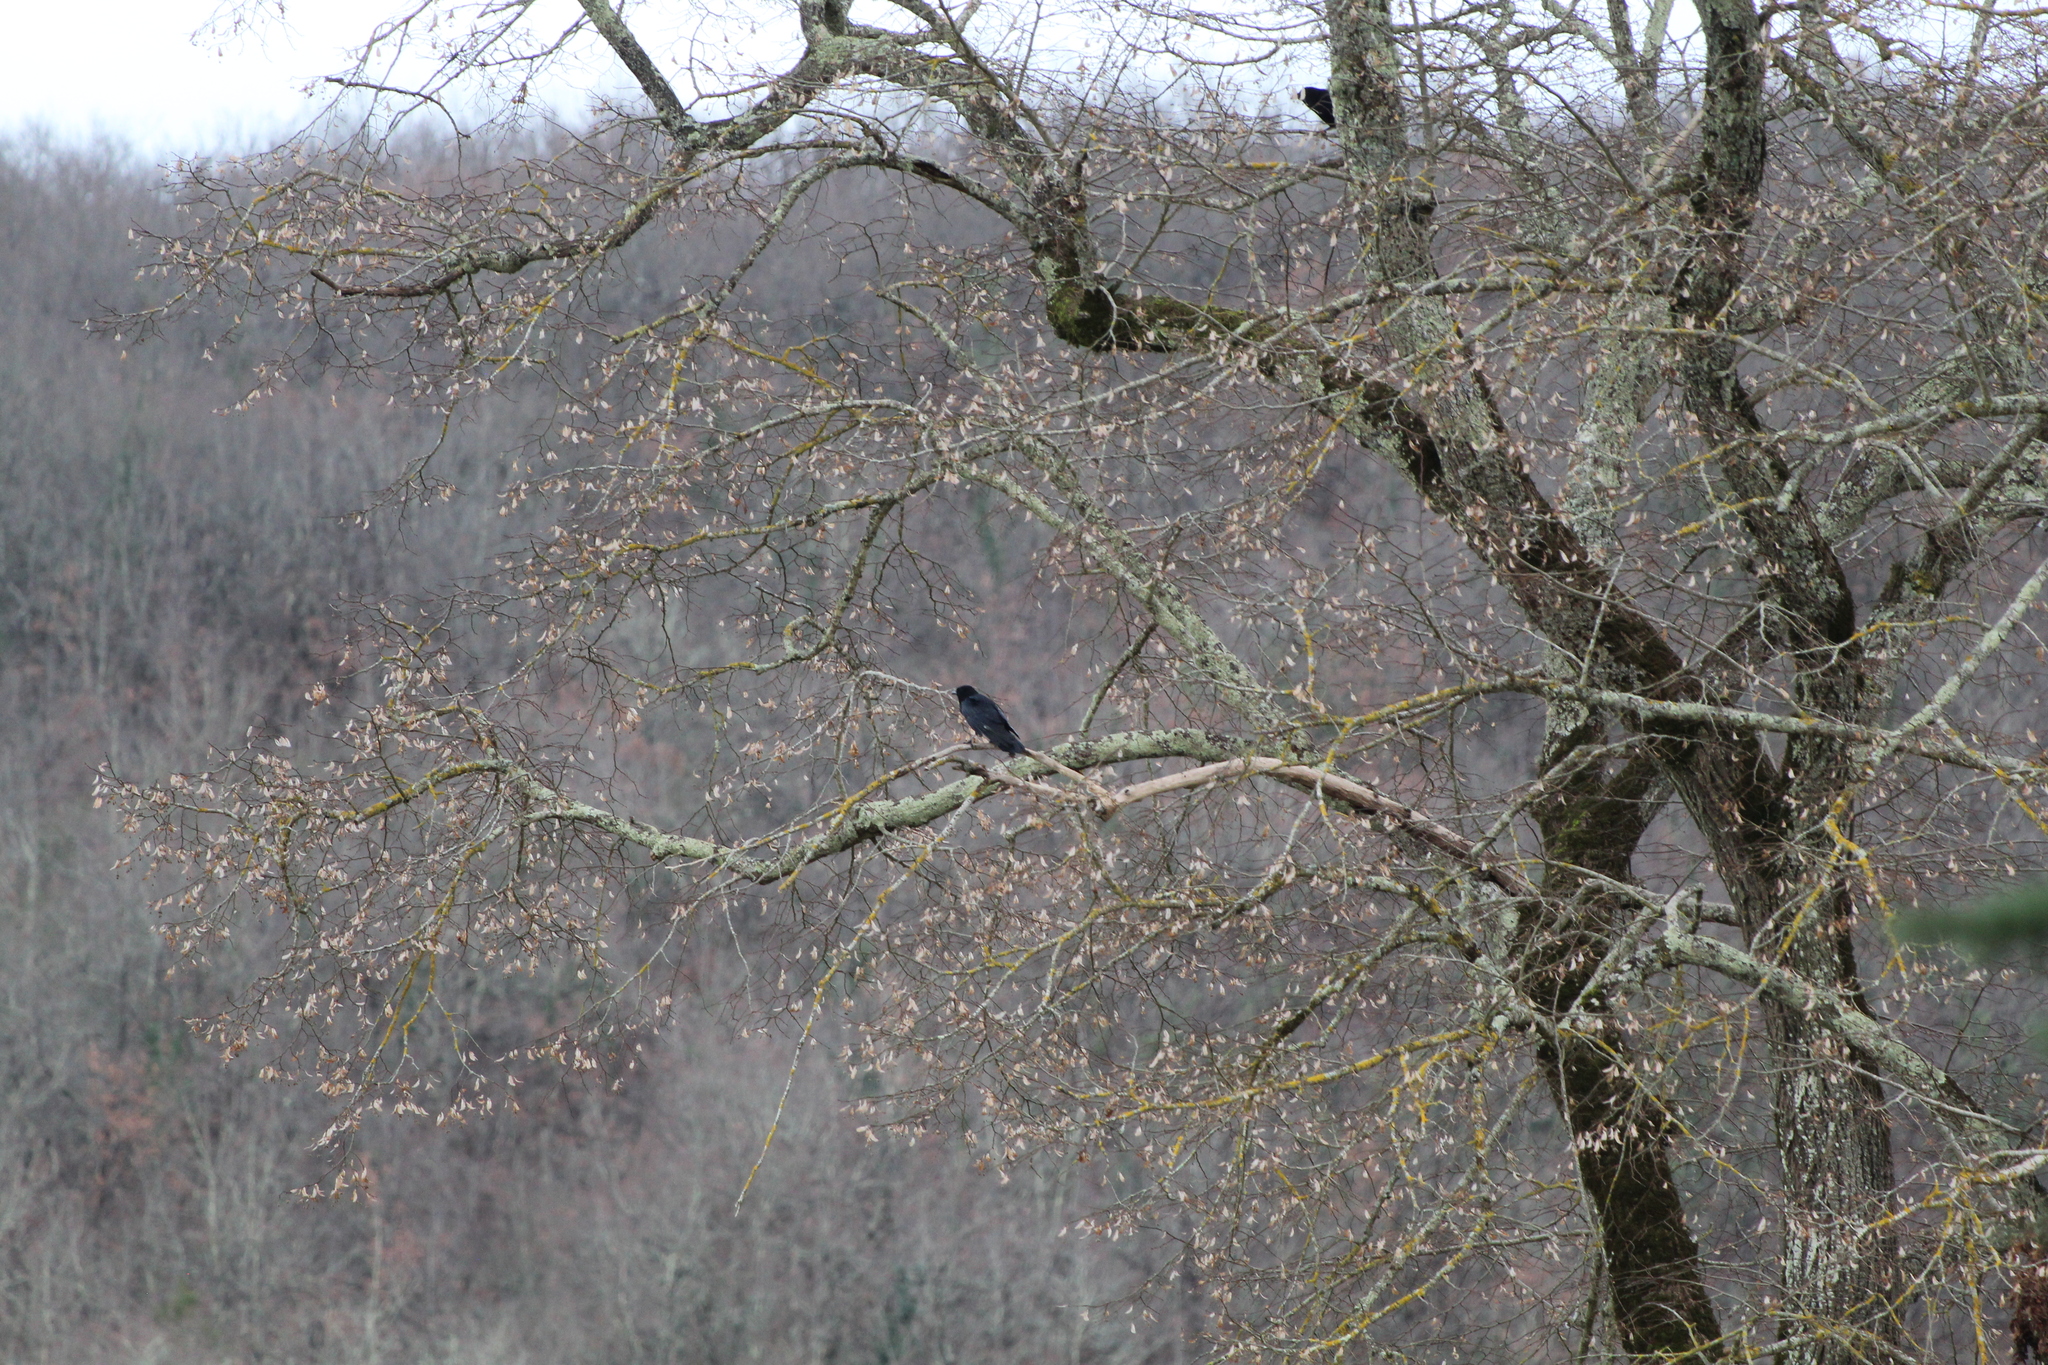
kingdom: Animalia
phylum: Chordata
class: Aves
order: Passeriformes
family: Corvidae
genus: Corvus
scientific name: Corvus corone
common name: Carrion crow
